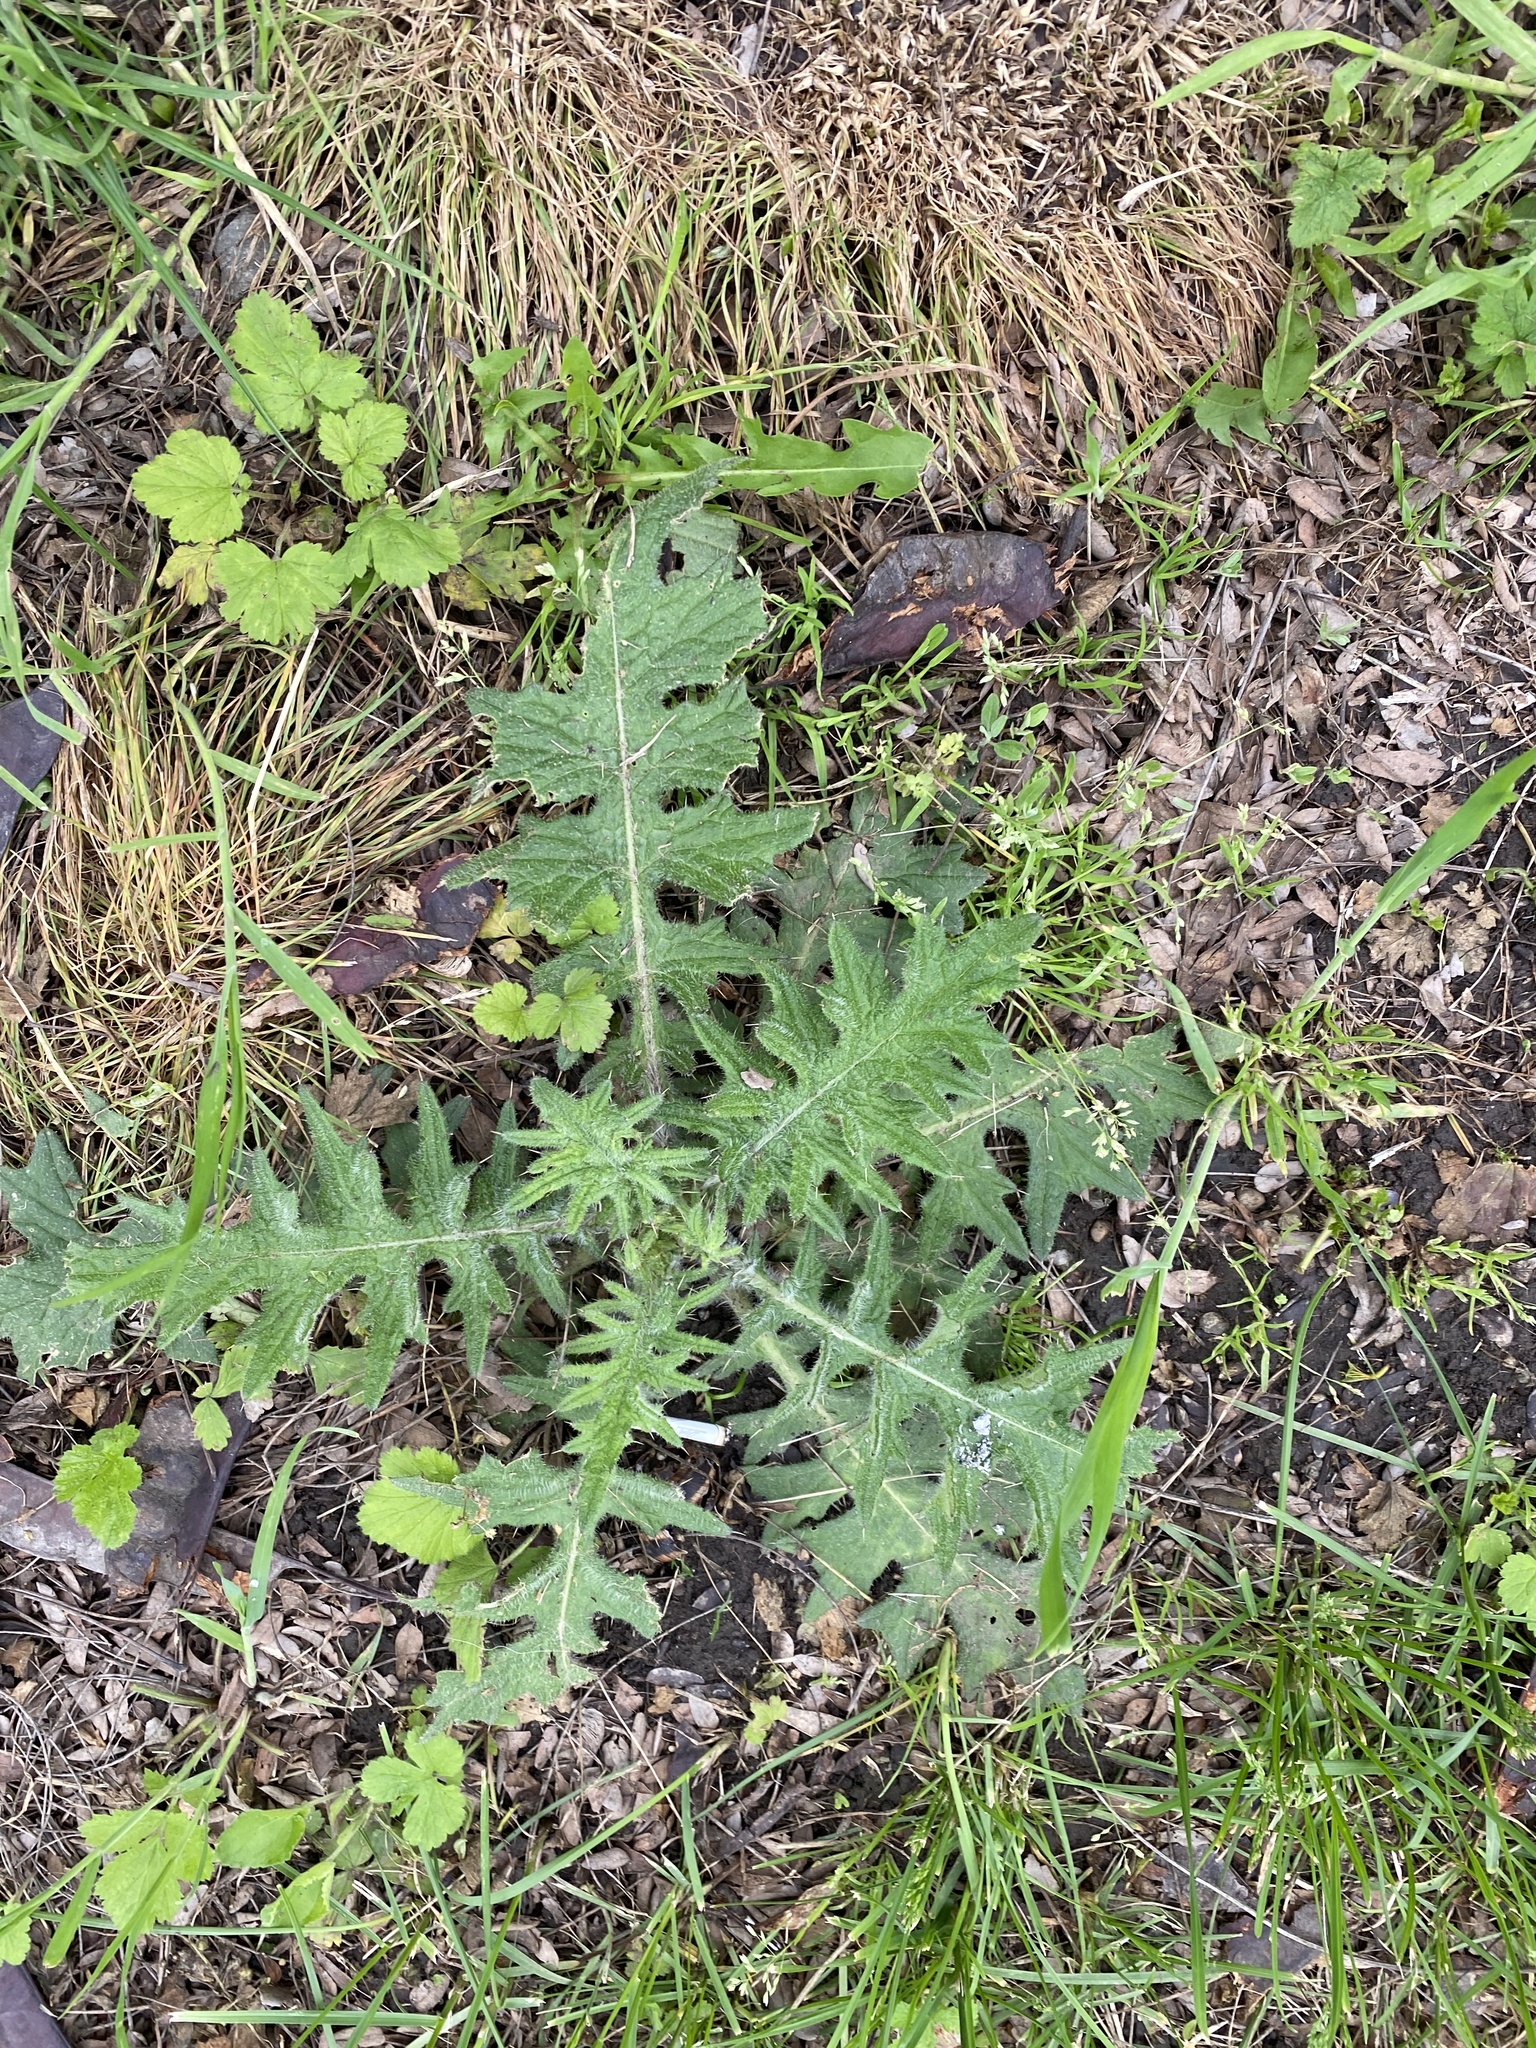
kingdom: Plantae
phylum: Tracheophyta
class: Magnoliopsida
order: Asterales
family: Asteraceae
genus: Cirsium
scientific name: Cirsium vulgare
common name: Bull thistle
